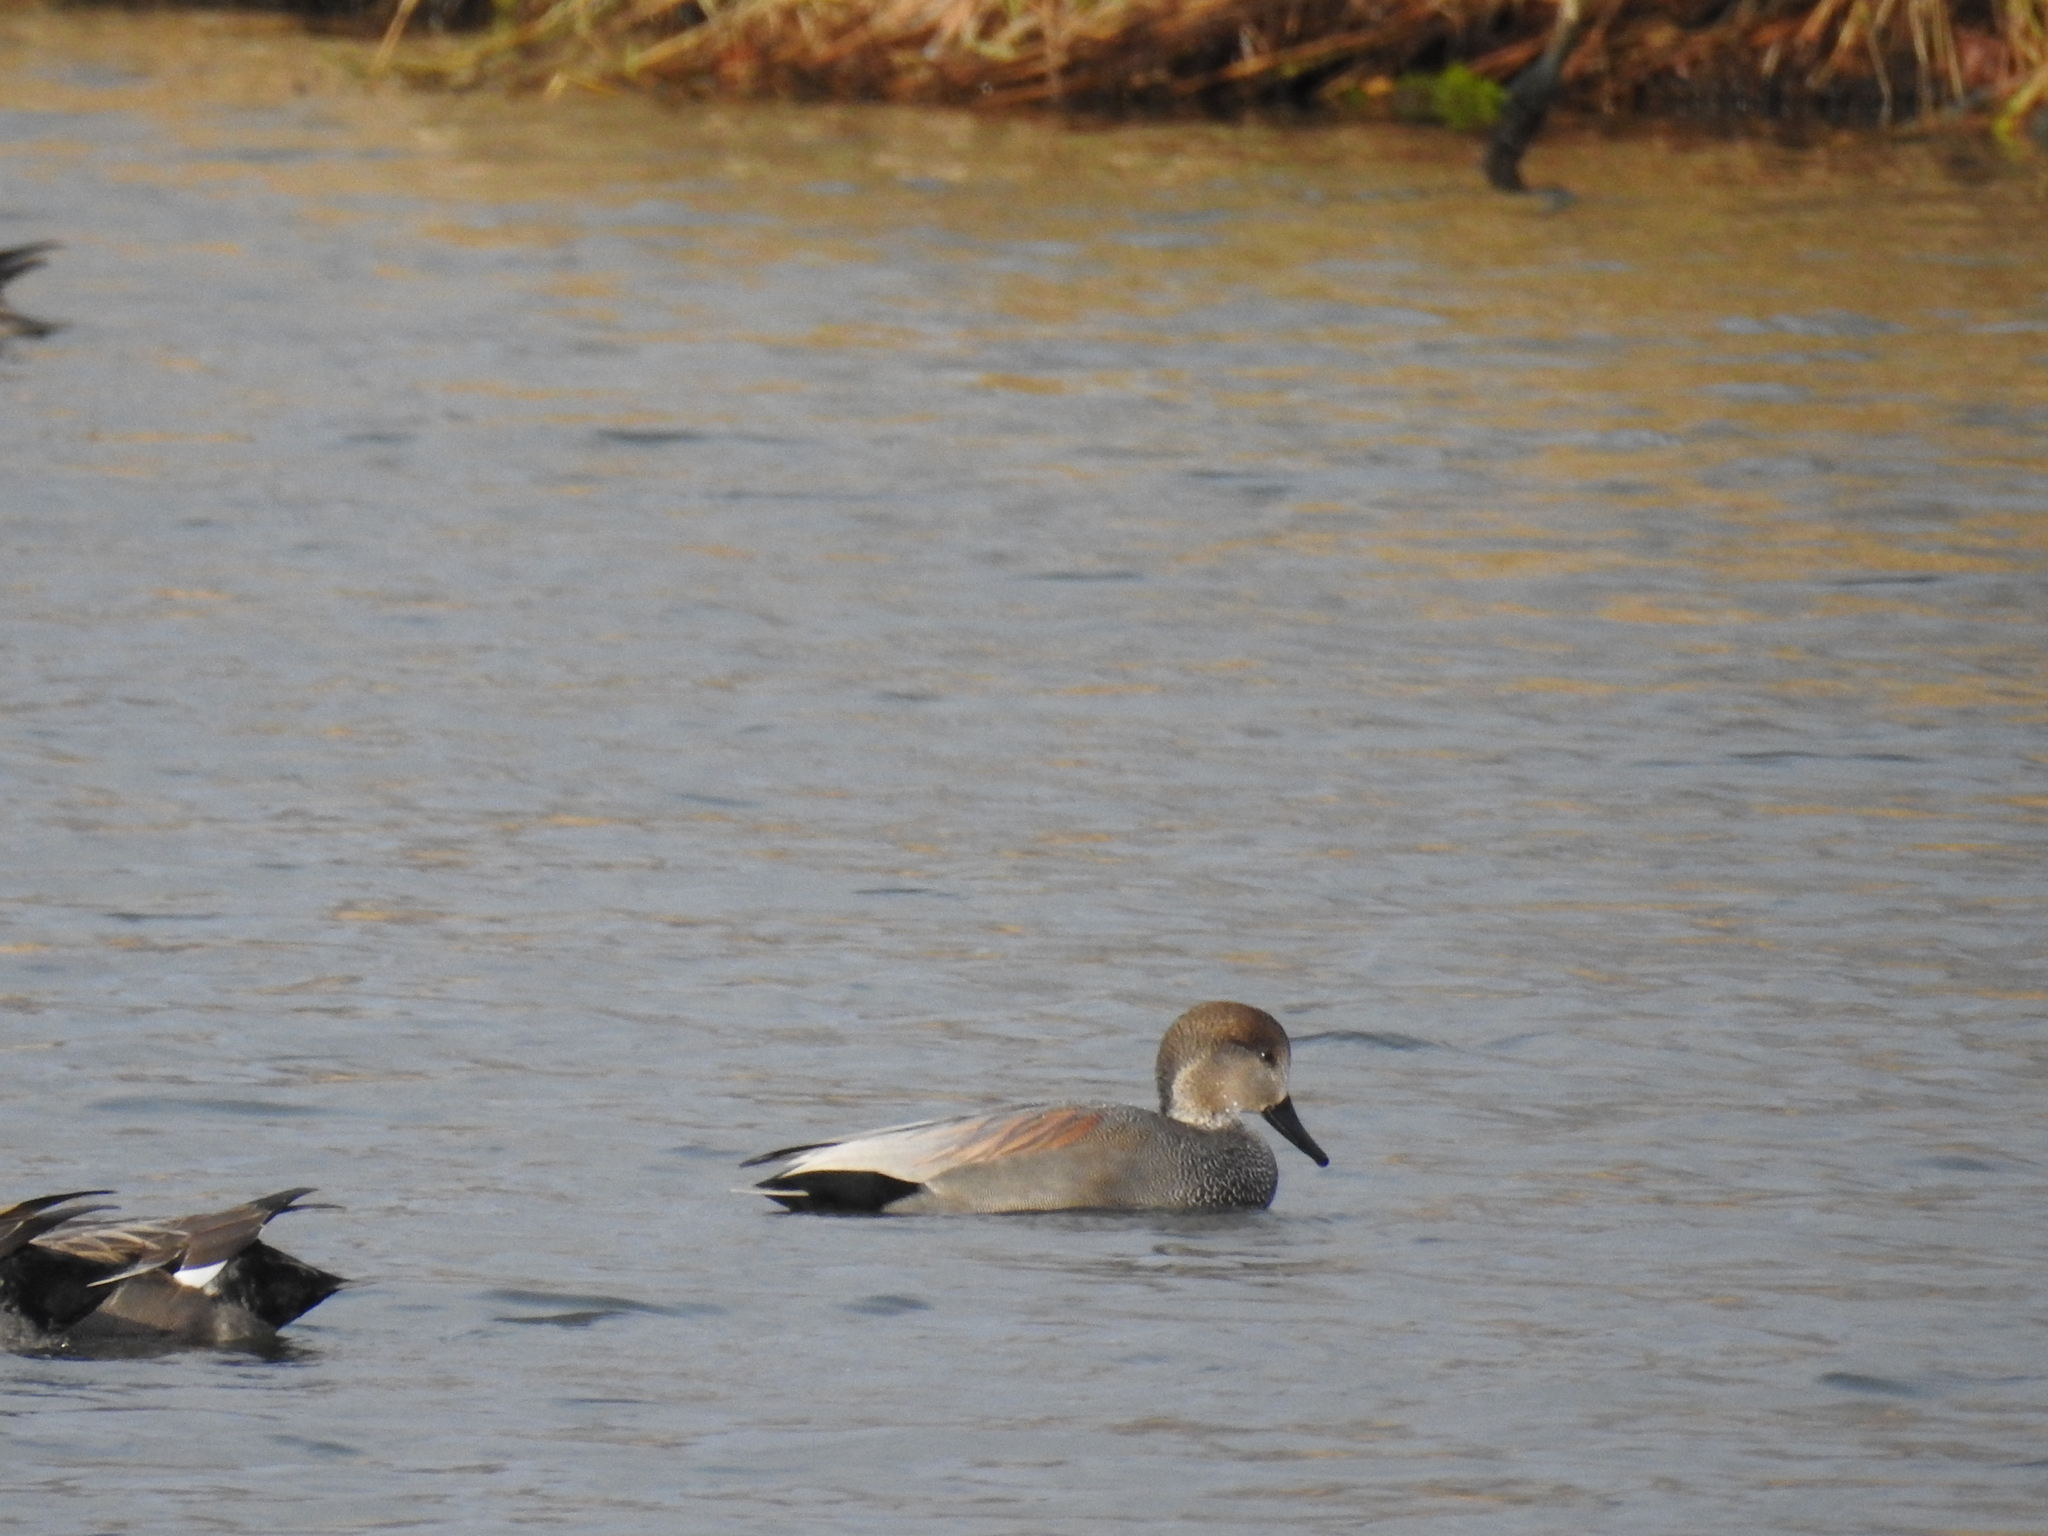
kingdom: Animalia
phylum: Chordata
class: Aves
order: Anseriformes
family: Anatidae
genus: Mareca
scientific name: Mareca strepera
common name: Gadwall
